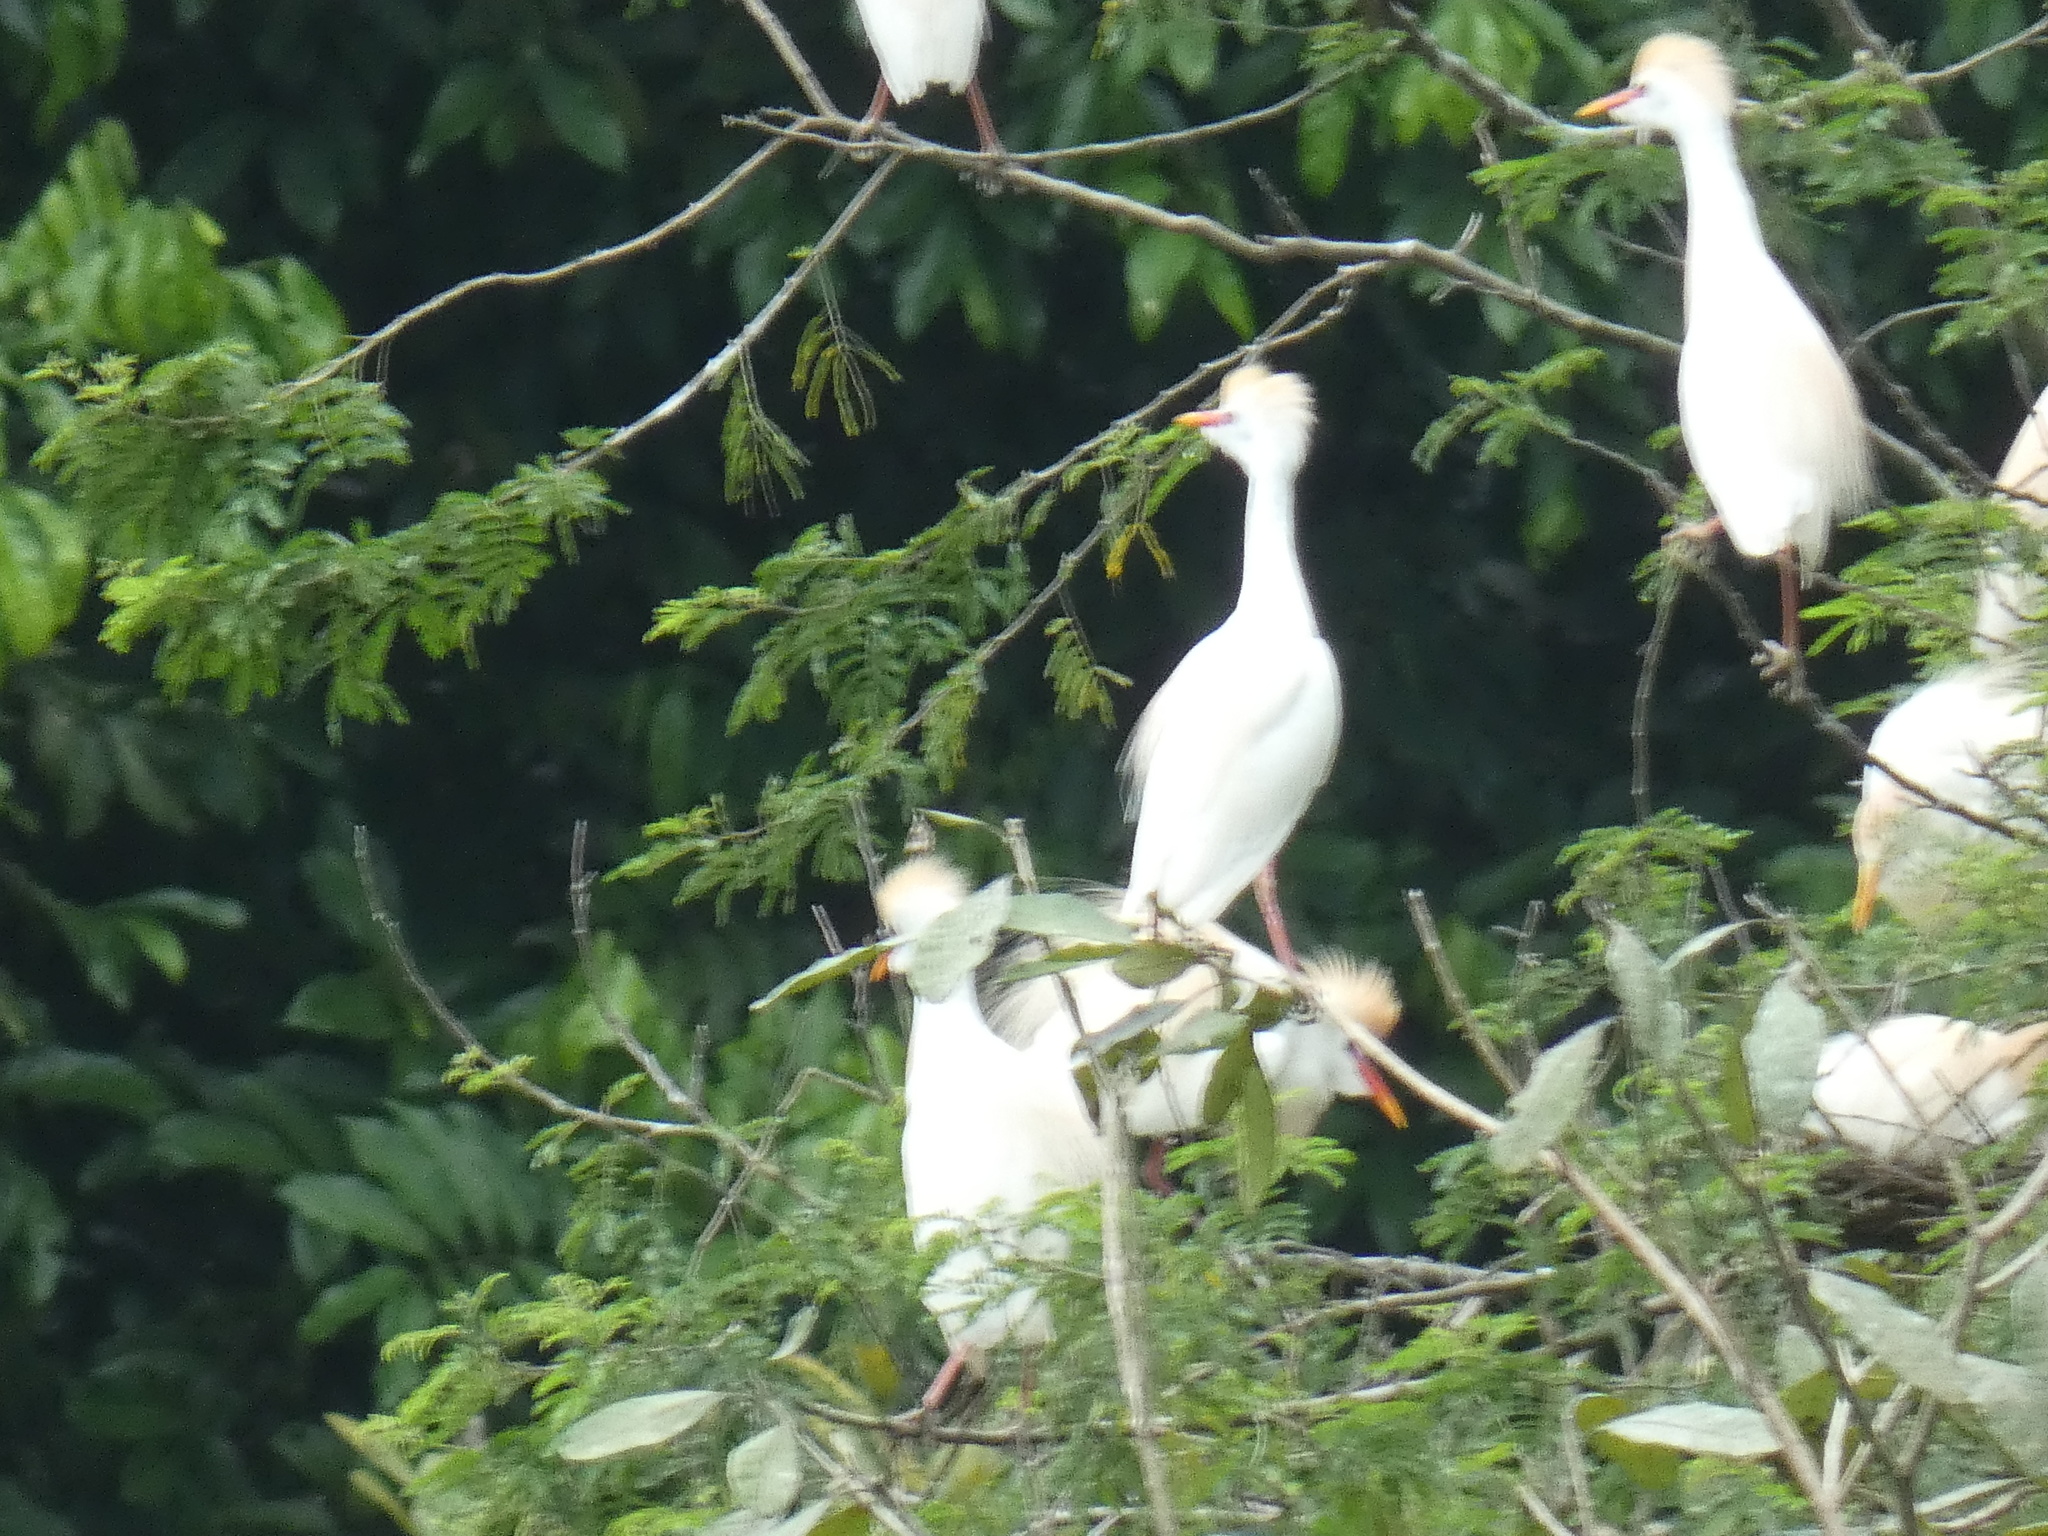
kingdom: Animalia
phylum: Chordata
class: Aves
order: Pelecaniformes
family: Ardeidae
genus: Bubulcus
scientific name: Bubulcus ibis
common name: Cattle egret
